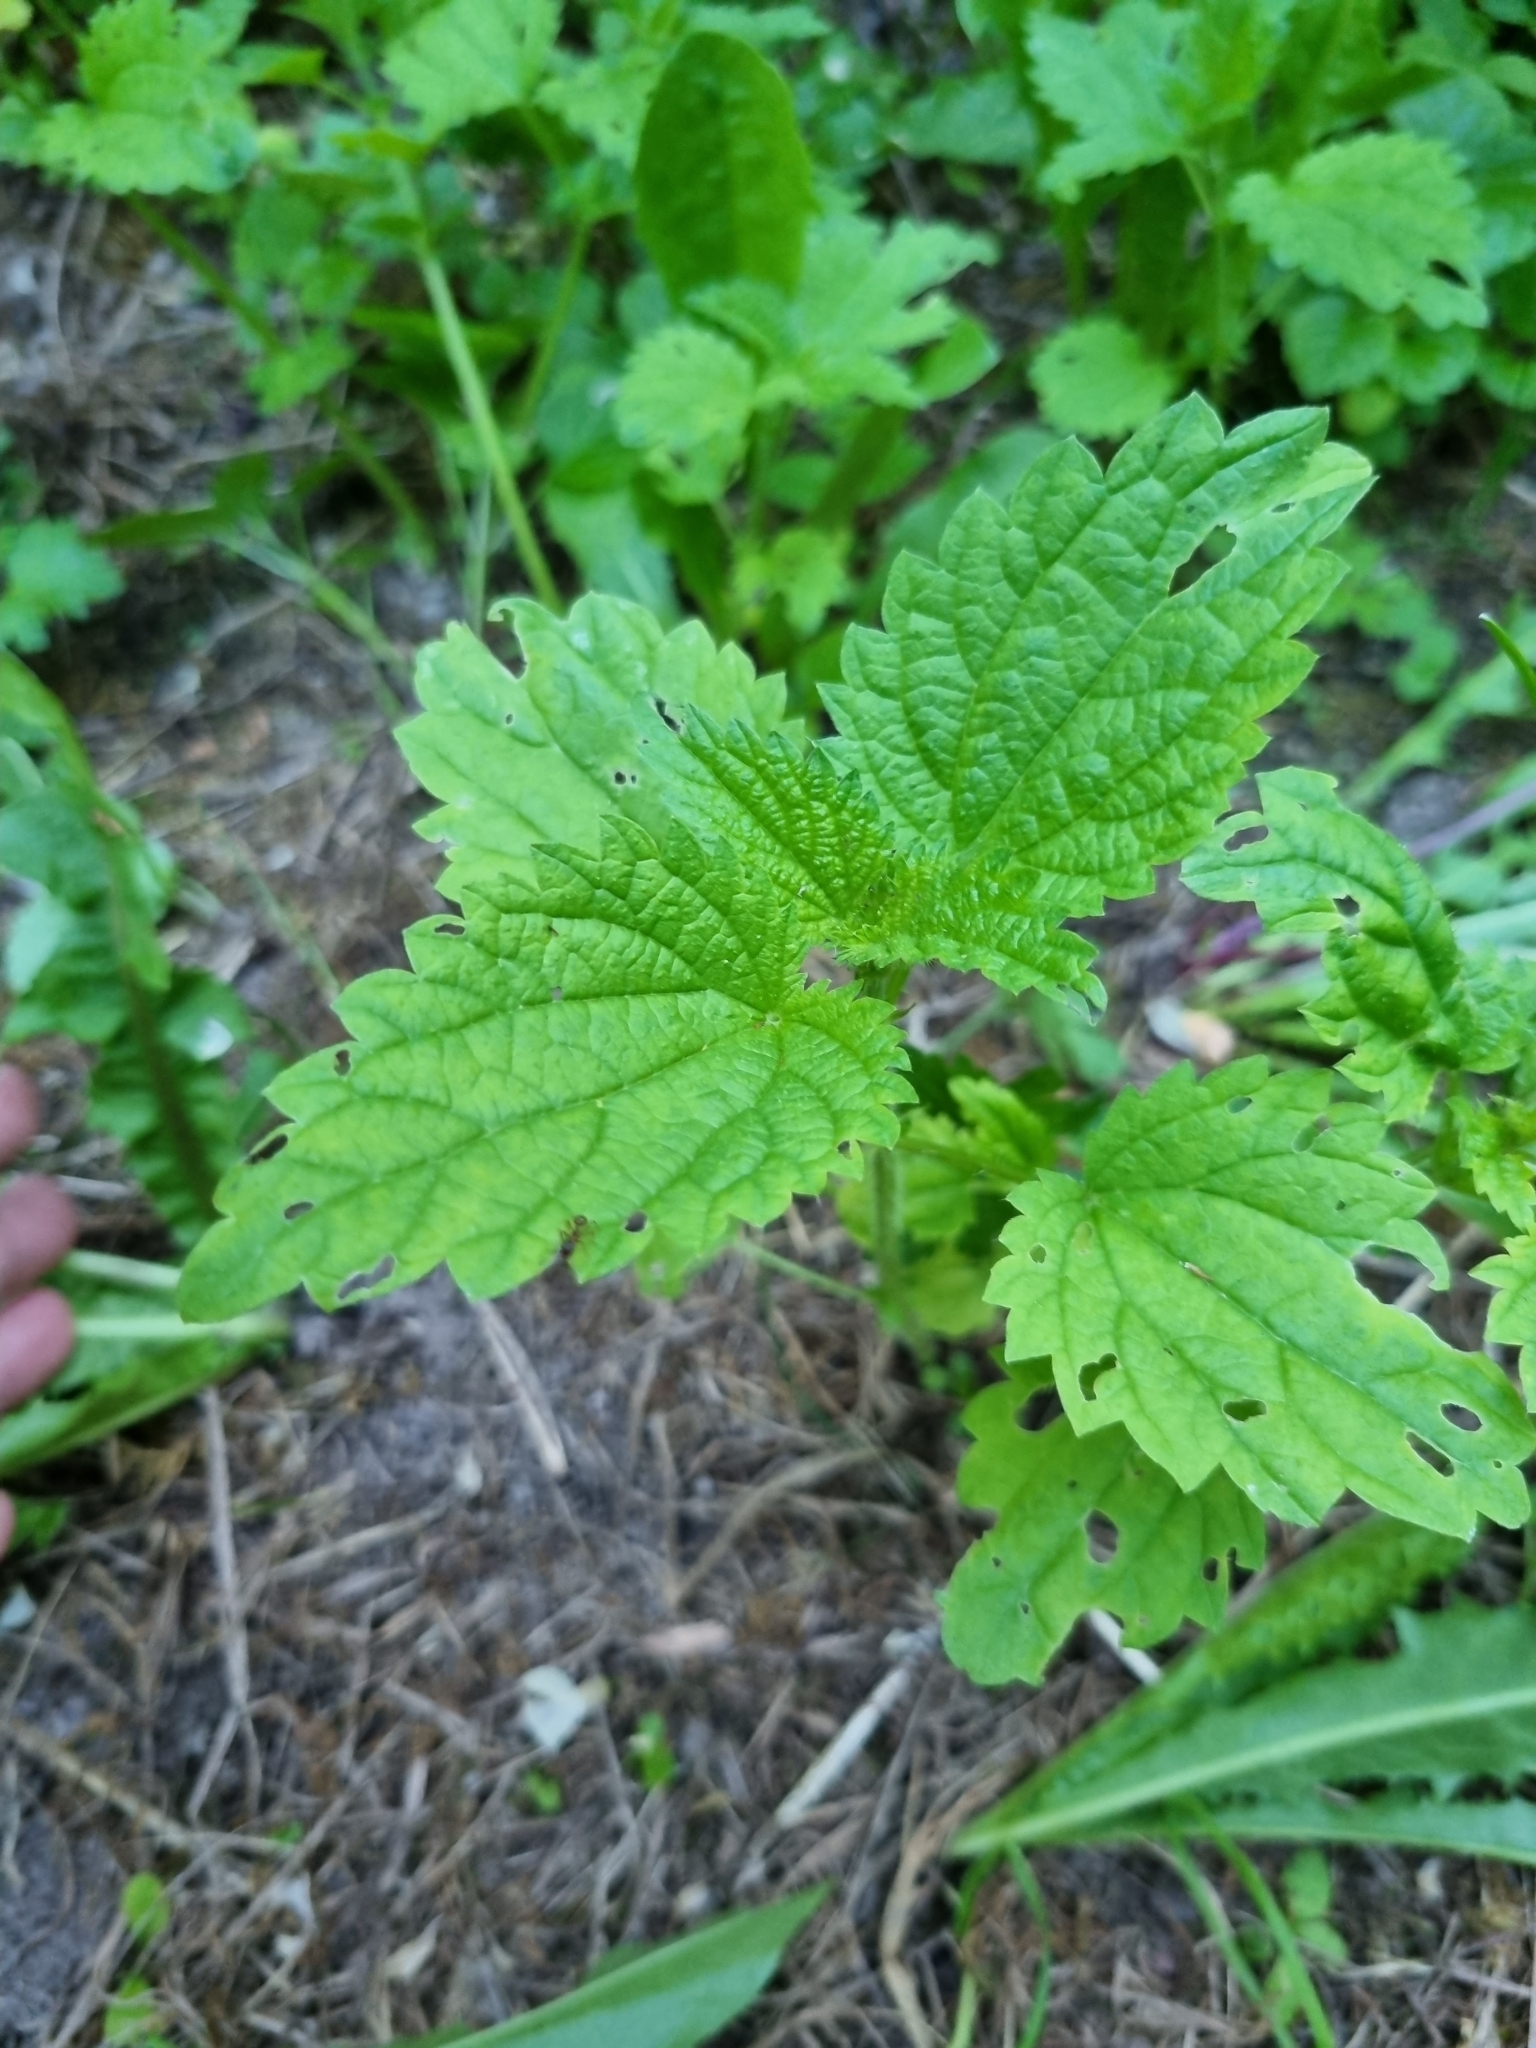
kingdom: Plantae
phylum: Tracheophyta
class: Magnoliopsida
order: Rosales
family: Urticaceae
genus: Urtica
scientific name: Urtica dioica
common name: Common nettle
